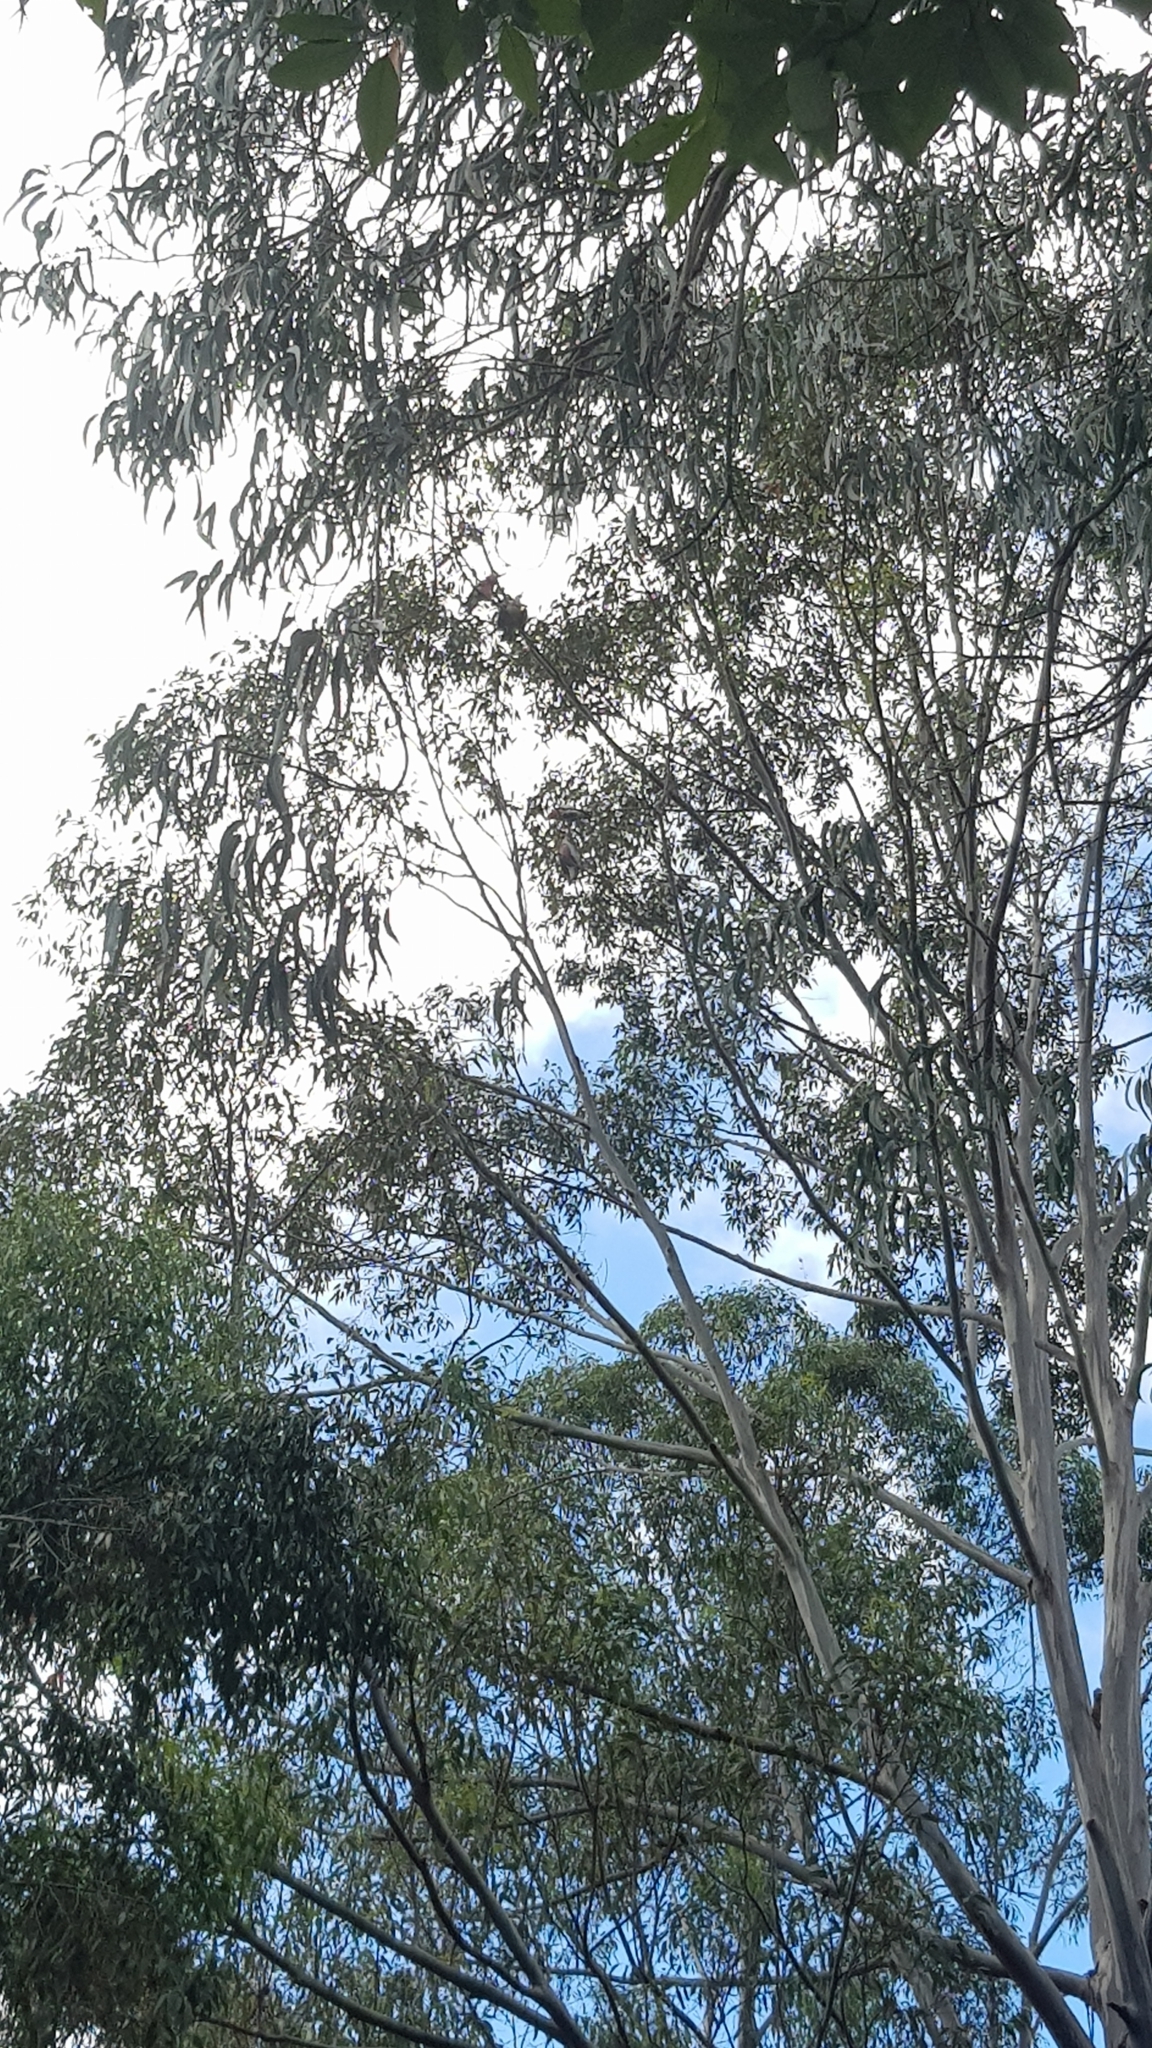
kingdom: Animalia
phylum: Chordata
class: Aves
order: Psittaciformes
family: Psittacidae
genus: Eolophus
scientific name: Eolophus roseicapilla
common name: Galah
